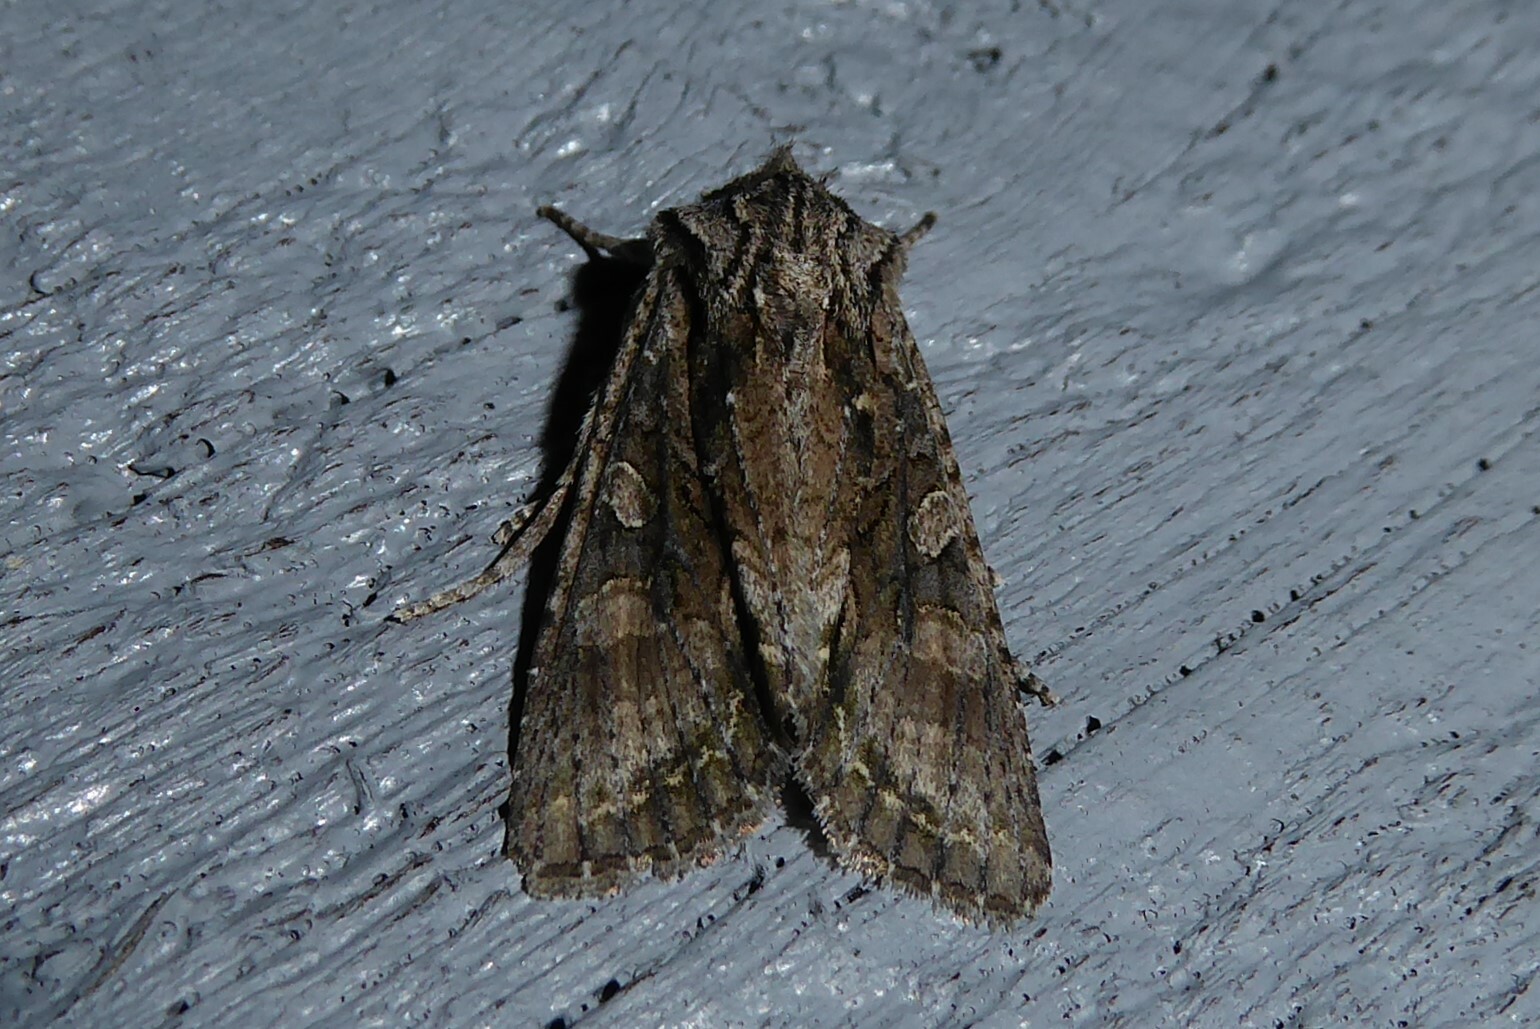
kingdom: Animalia
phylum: Arthropoda
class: Insecta
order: Lepidoptera
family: Noctuidae
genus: Ichneutica
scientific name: Ichneutica mutans
